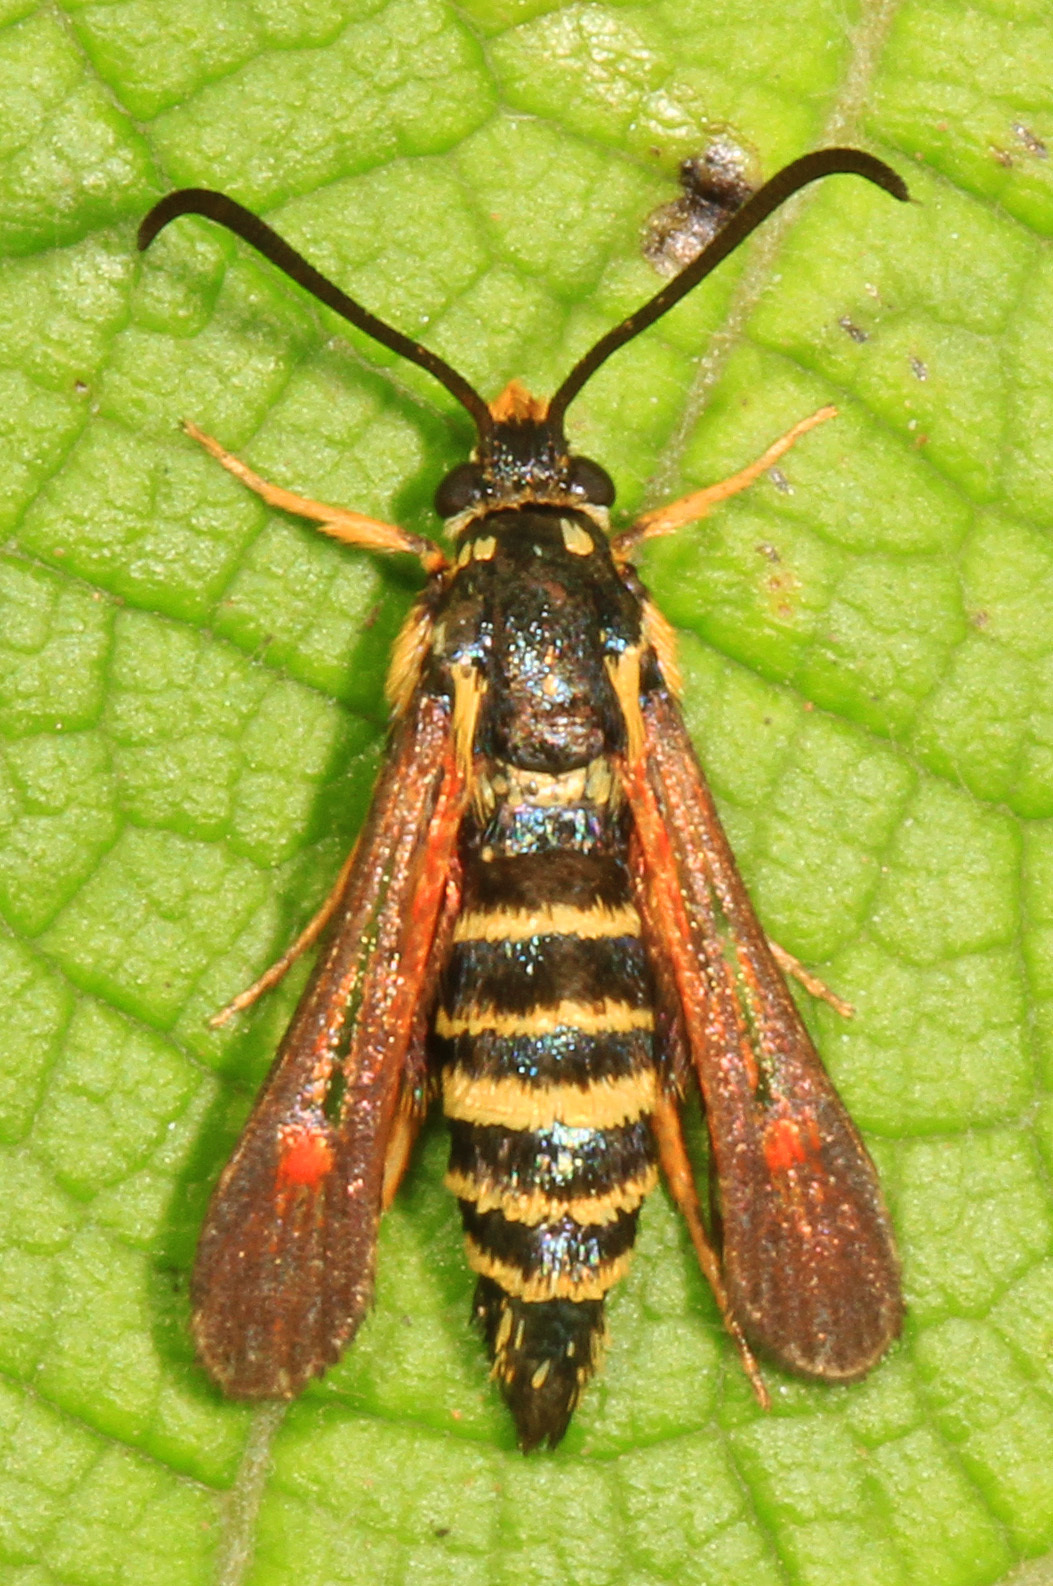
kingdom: Animalia
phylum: Arthropoda
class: Insecta
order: Lepidoptera
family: Sesiidae
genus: Synanthedon
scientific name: Synanthedon rileyana
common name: Riley's clearwing moth
